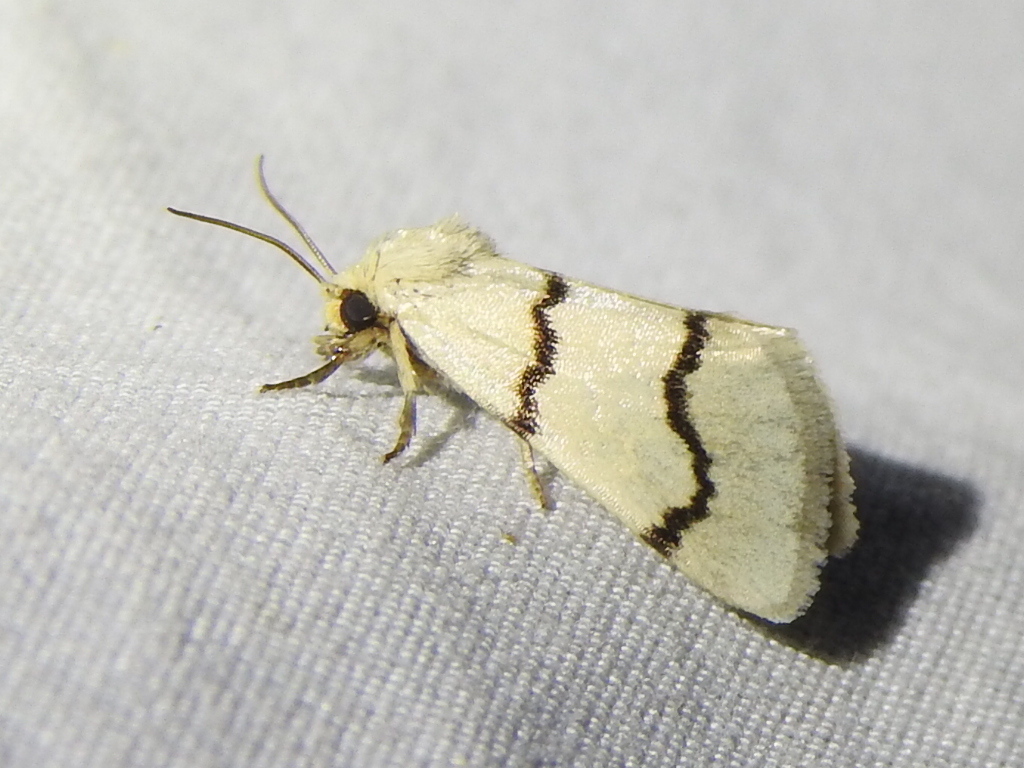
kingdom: Animalia
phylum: Arthropoda
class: Insecta
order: Lepidoptera
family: Noctuidae
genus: Lineostriastiria
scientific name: Lineostriastiria biundulalis
